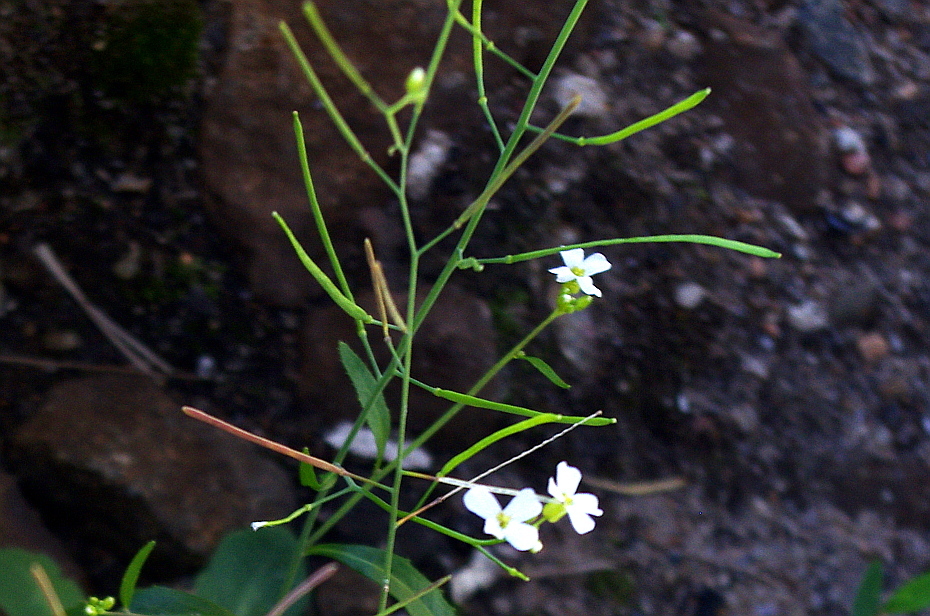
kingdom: Plantae
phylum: Tracheophyta
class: Magnoliopsida
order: Brassicales
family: Brassicaceae
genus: Arabidopsis
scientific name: Arabidopsis arenosa
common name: Sand rock-cress
